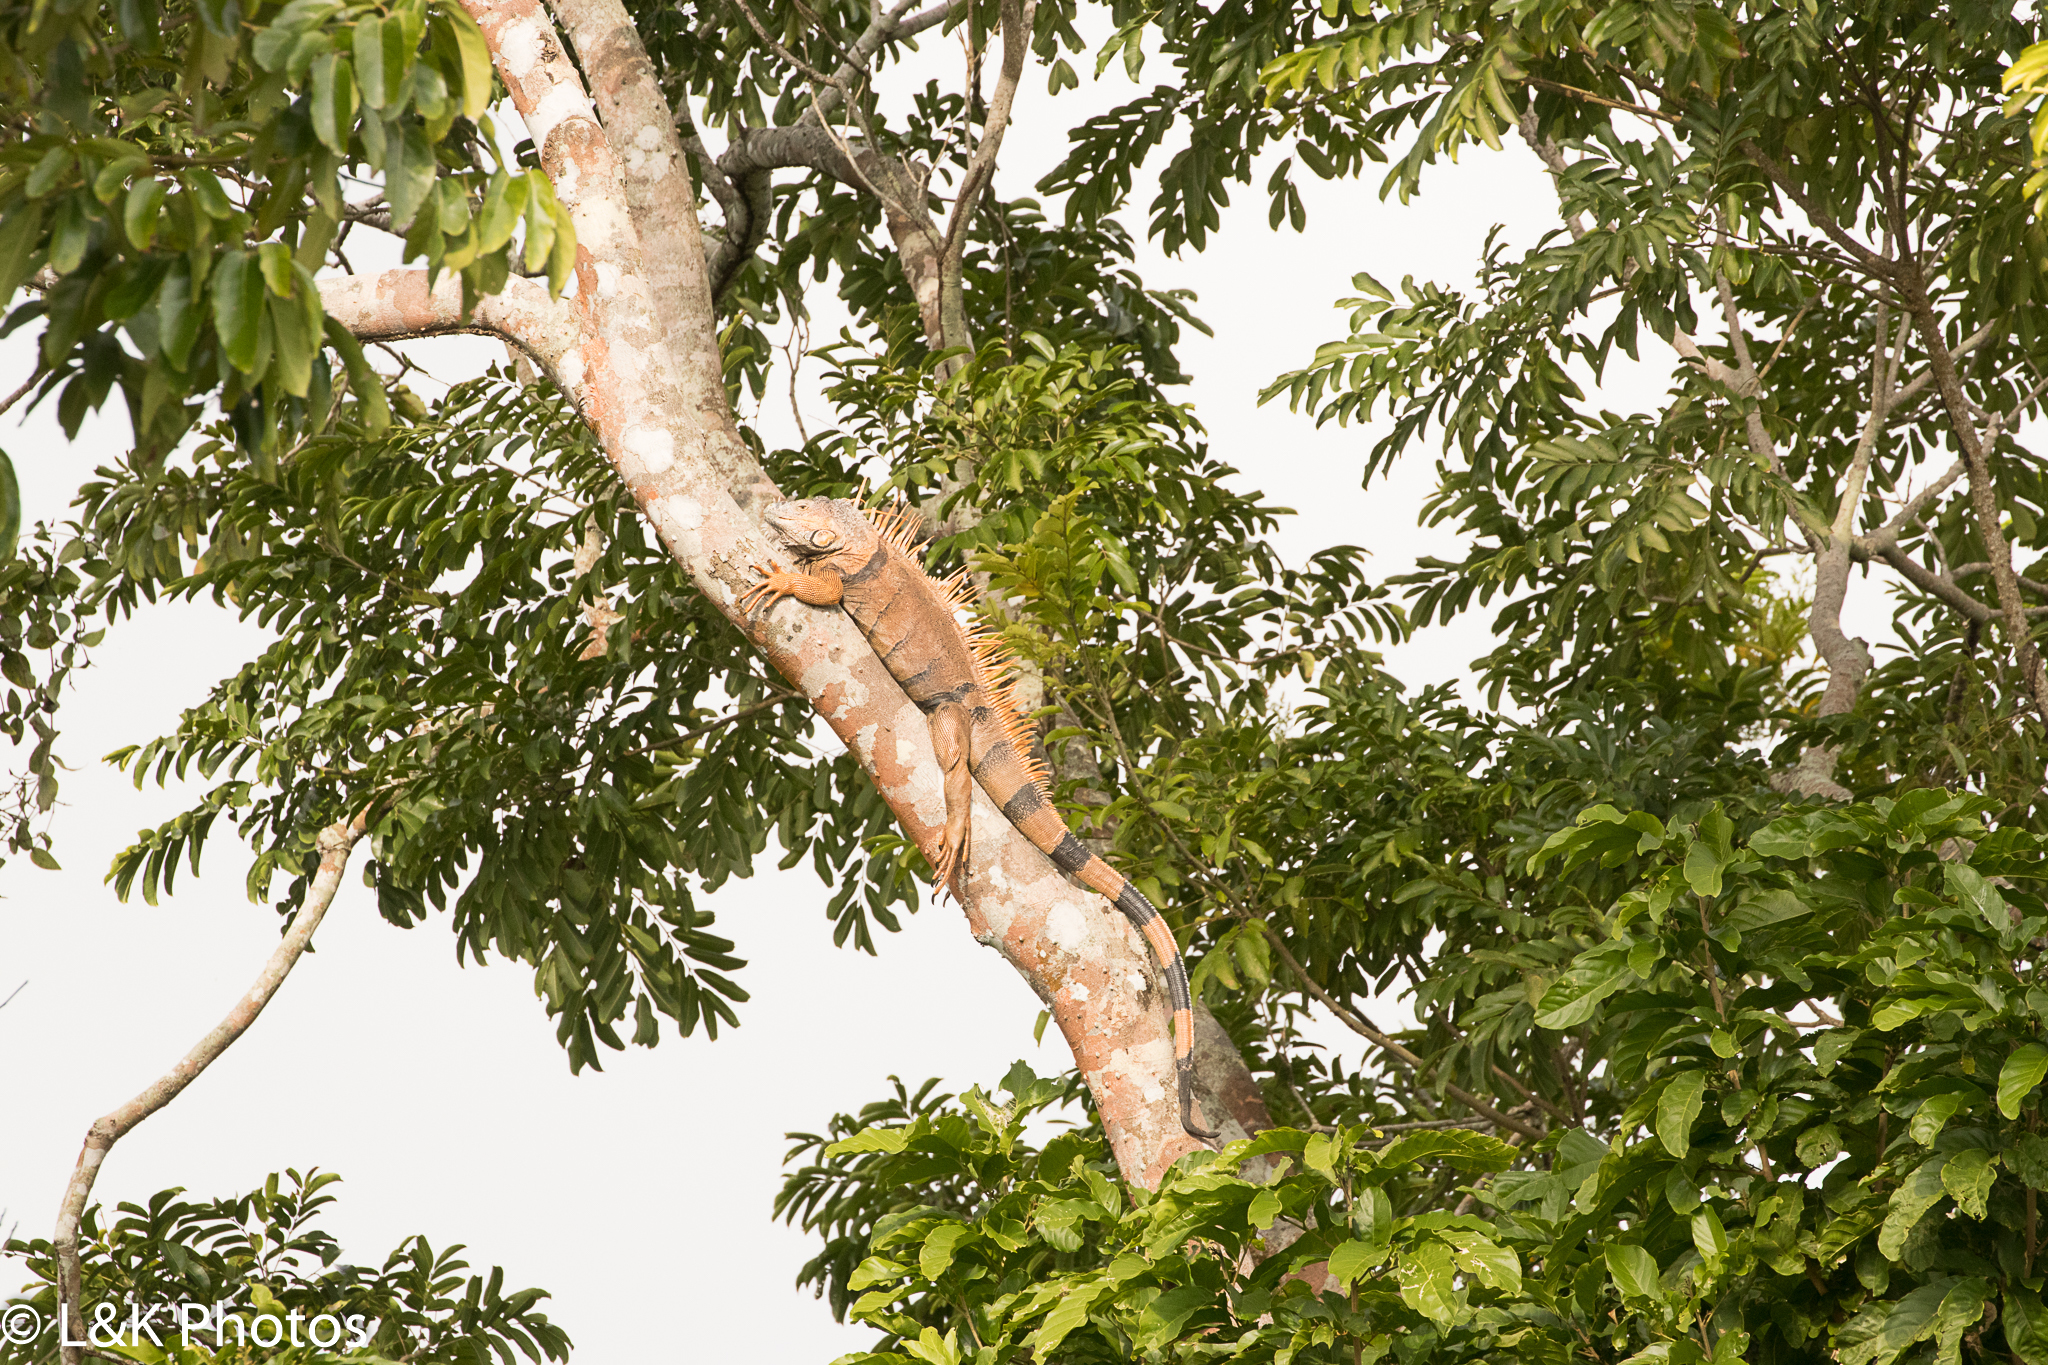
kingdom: Animalia
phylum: Chordata
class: Squamata
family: Iguanidae
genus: Iguana
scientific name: Iguana iguana
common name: Green iguana
